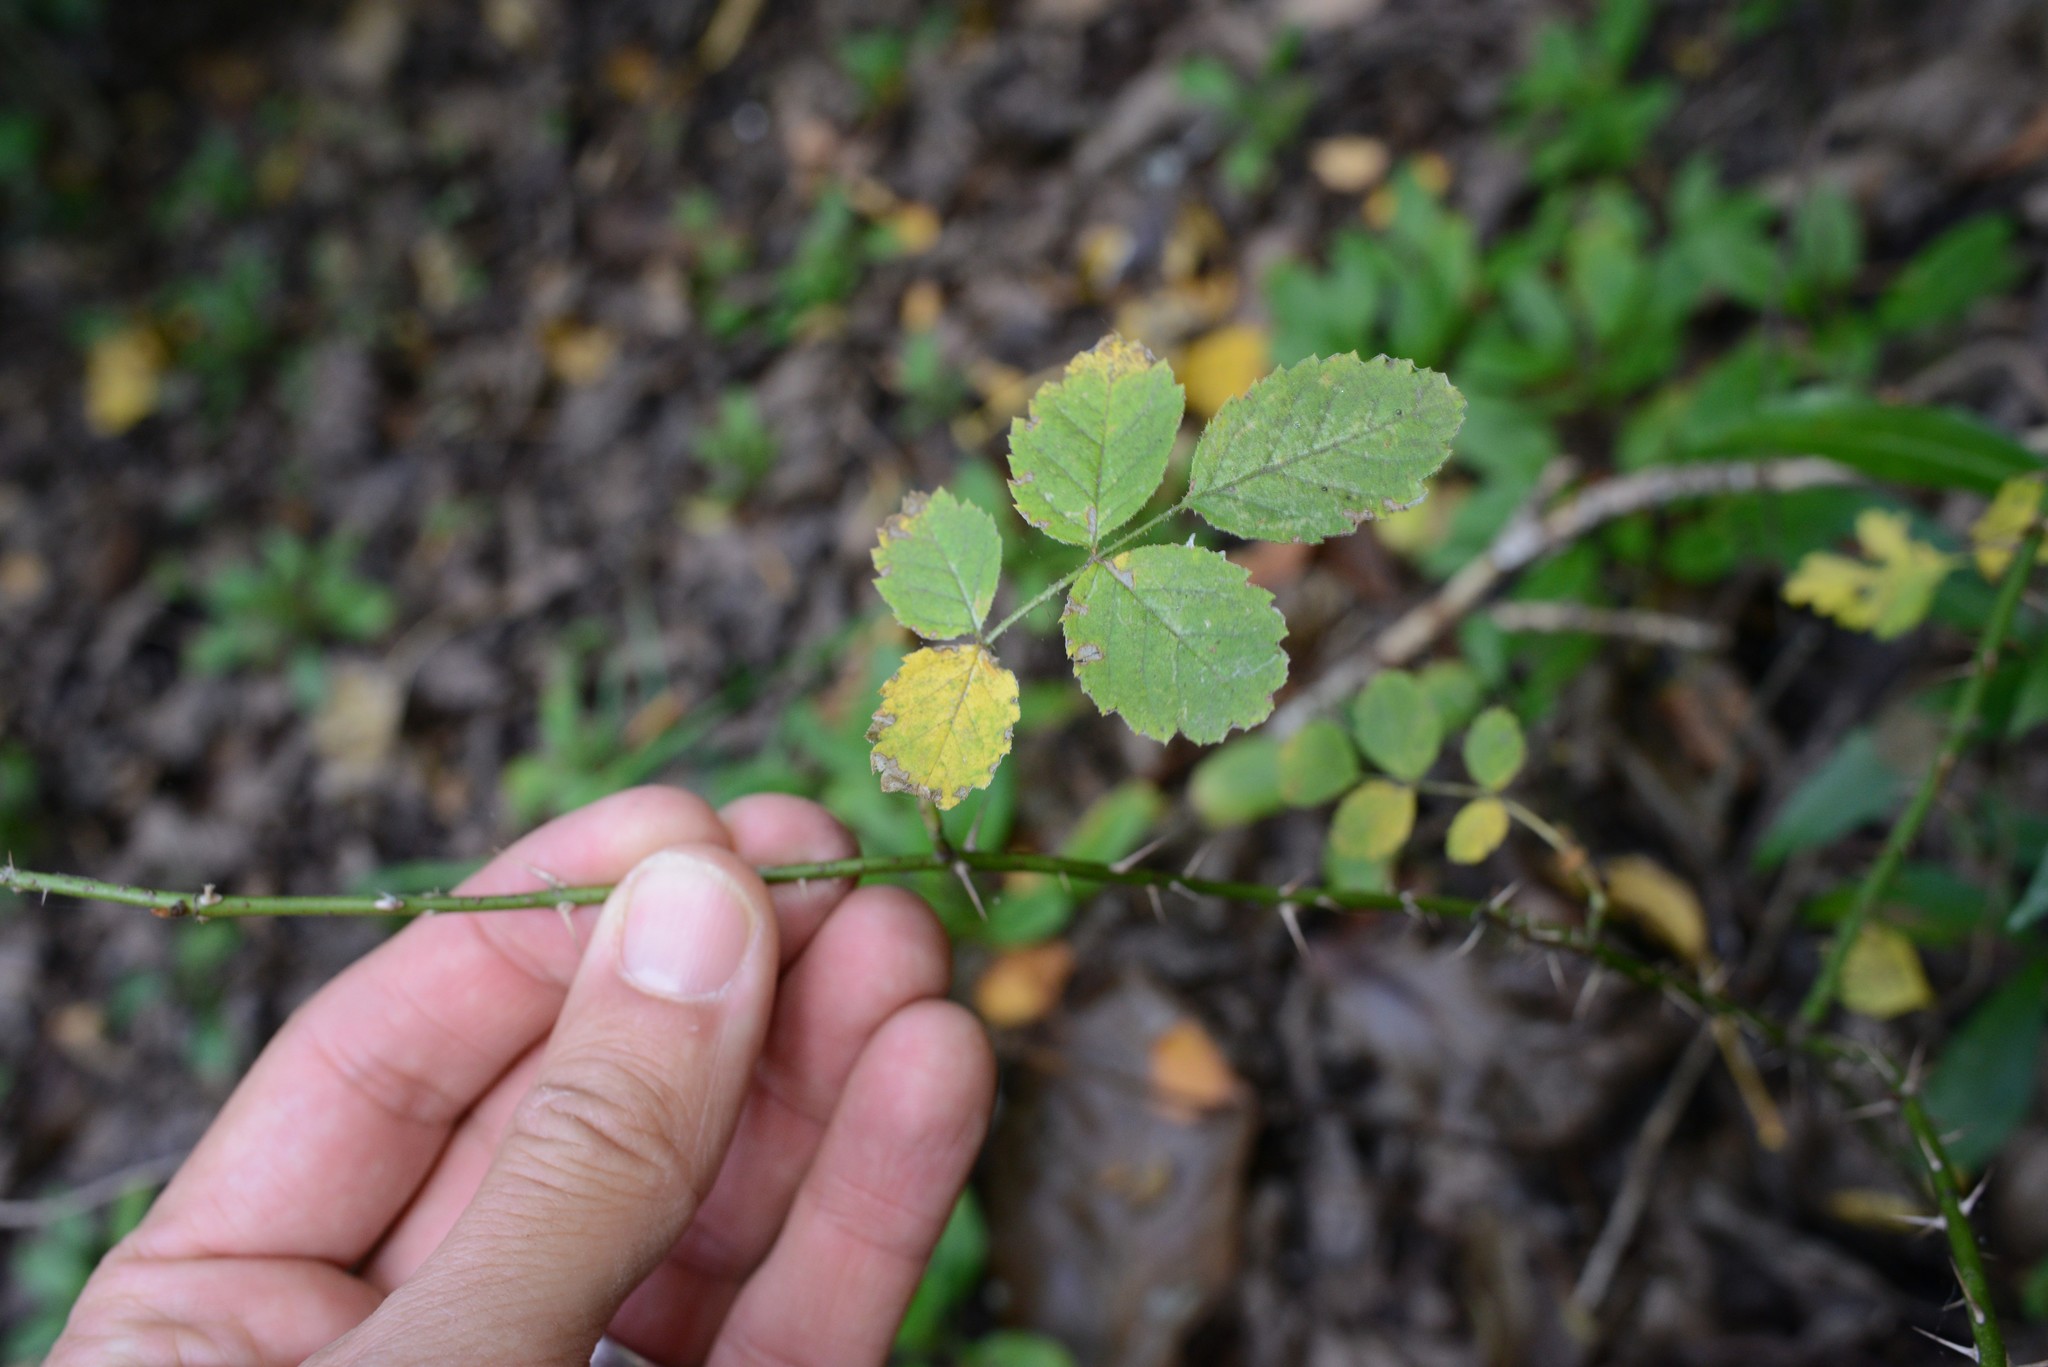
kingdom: Plantae
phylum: Tracheophyta
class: Magnoliopsida
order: Rosales
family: Rosaceae
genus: Rosa
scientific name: Rosa rubiginosa
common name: Sweet-briar
